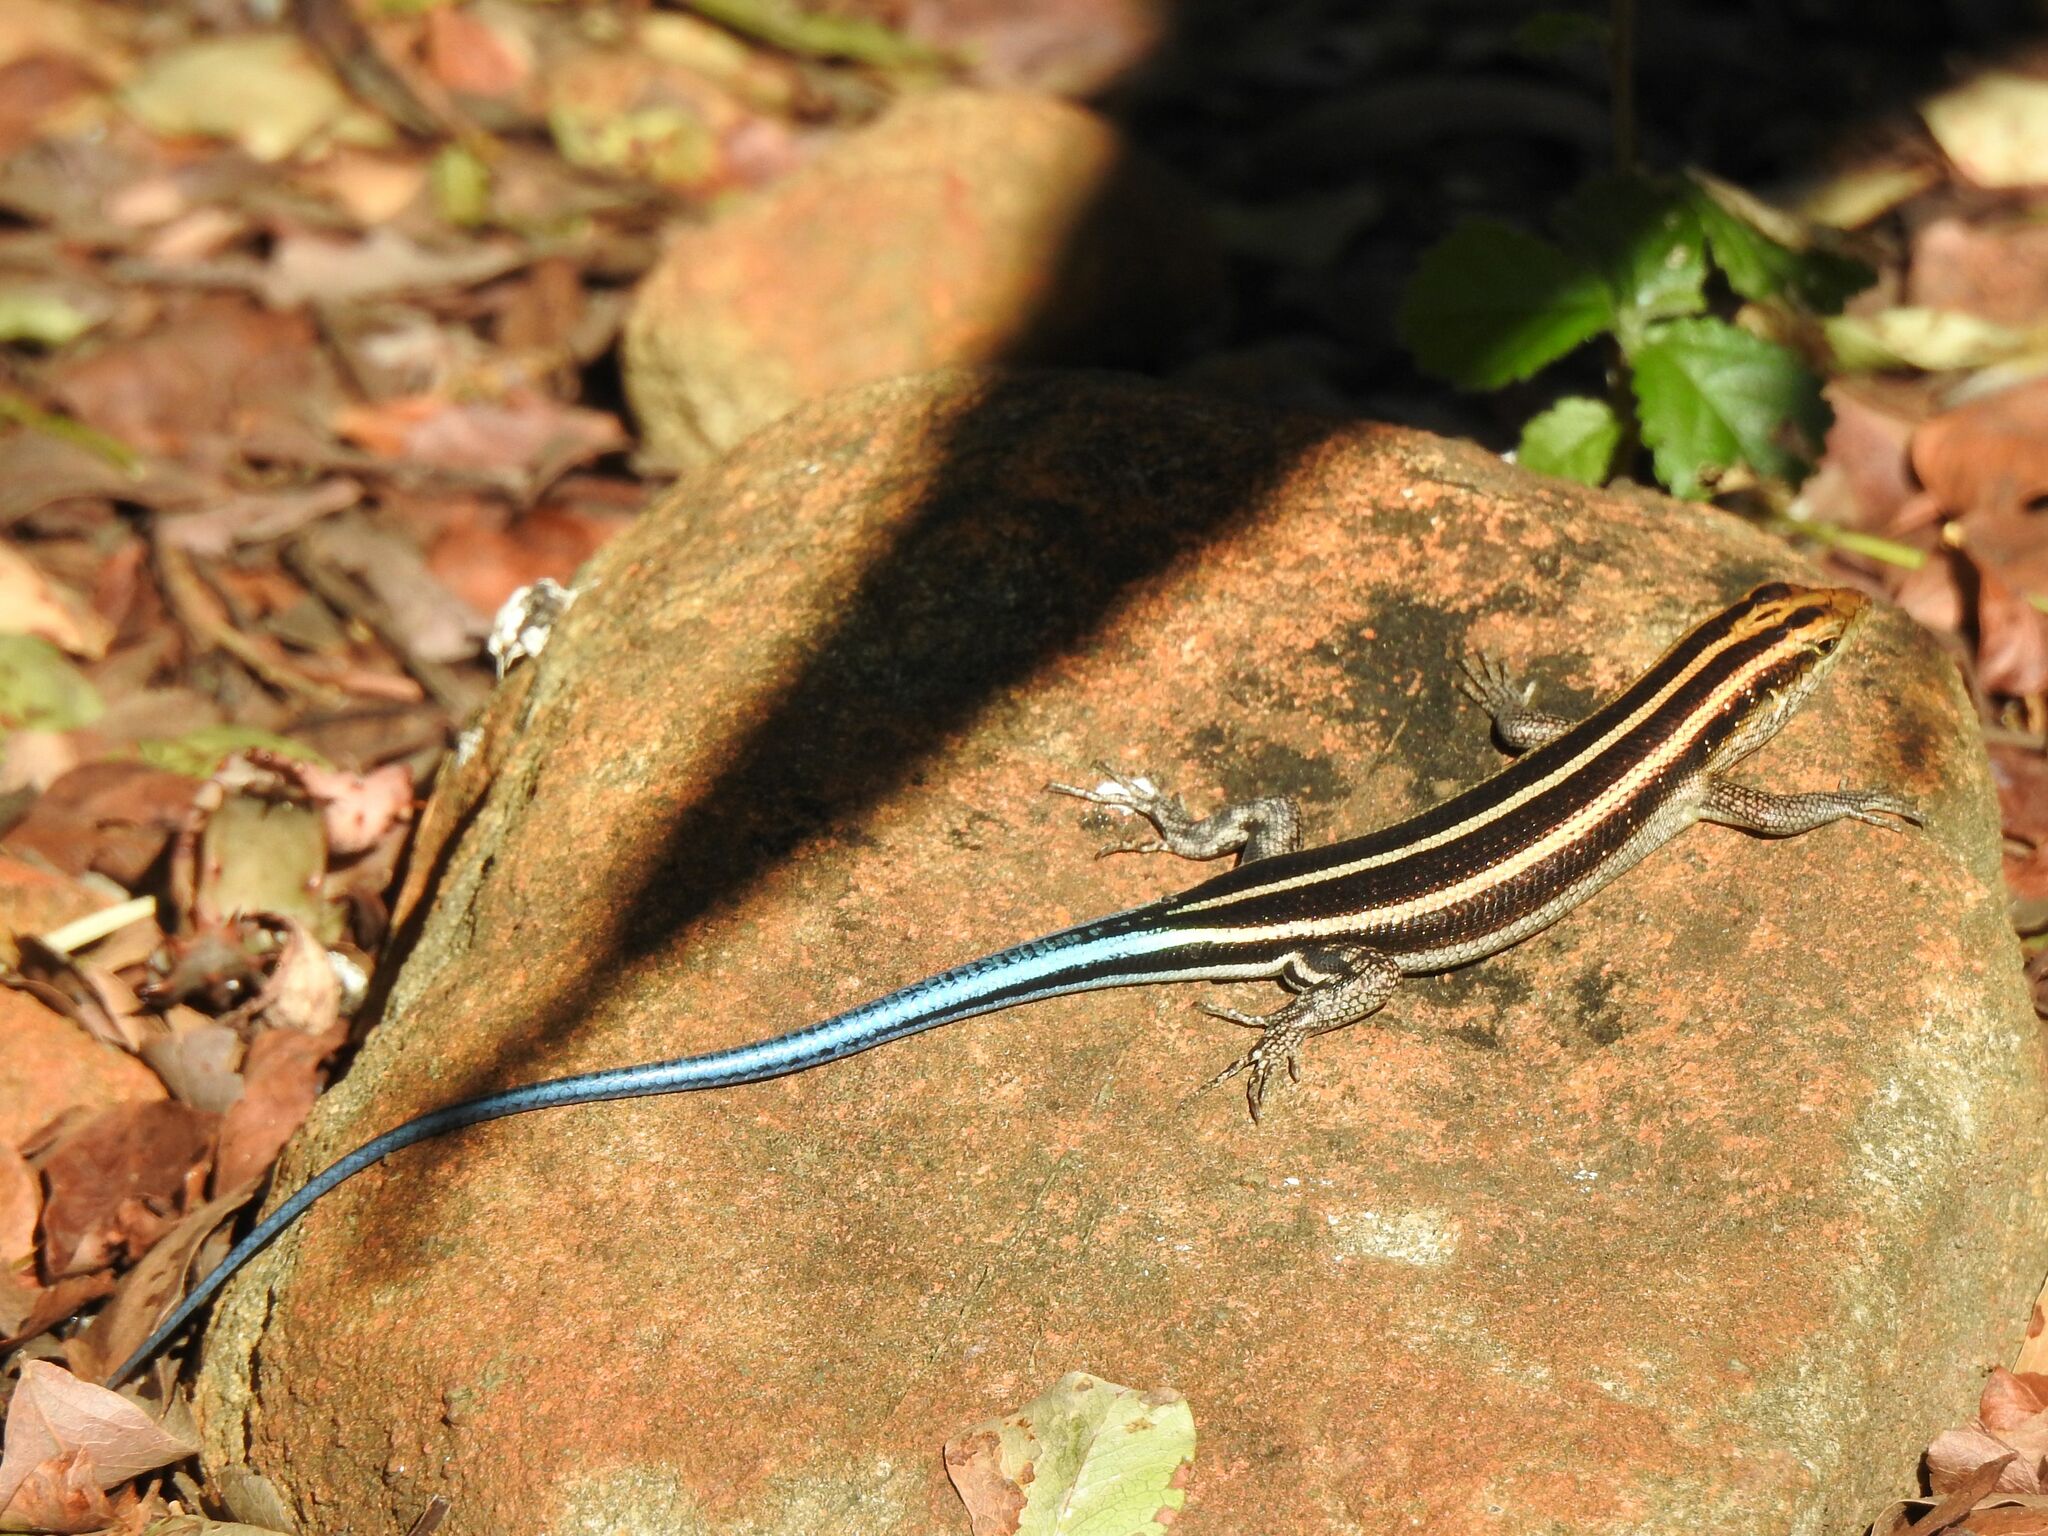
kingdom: Animalia
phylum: Chordata
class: Squamata
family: Scincidae
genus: Trachylepis
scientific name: Trachylepis margaritifera
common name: Rainbow skink
